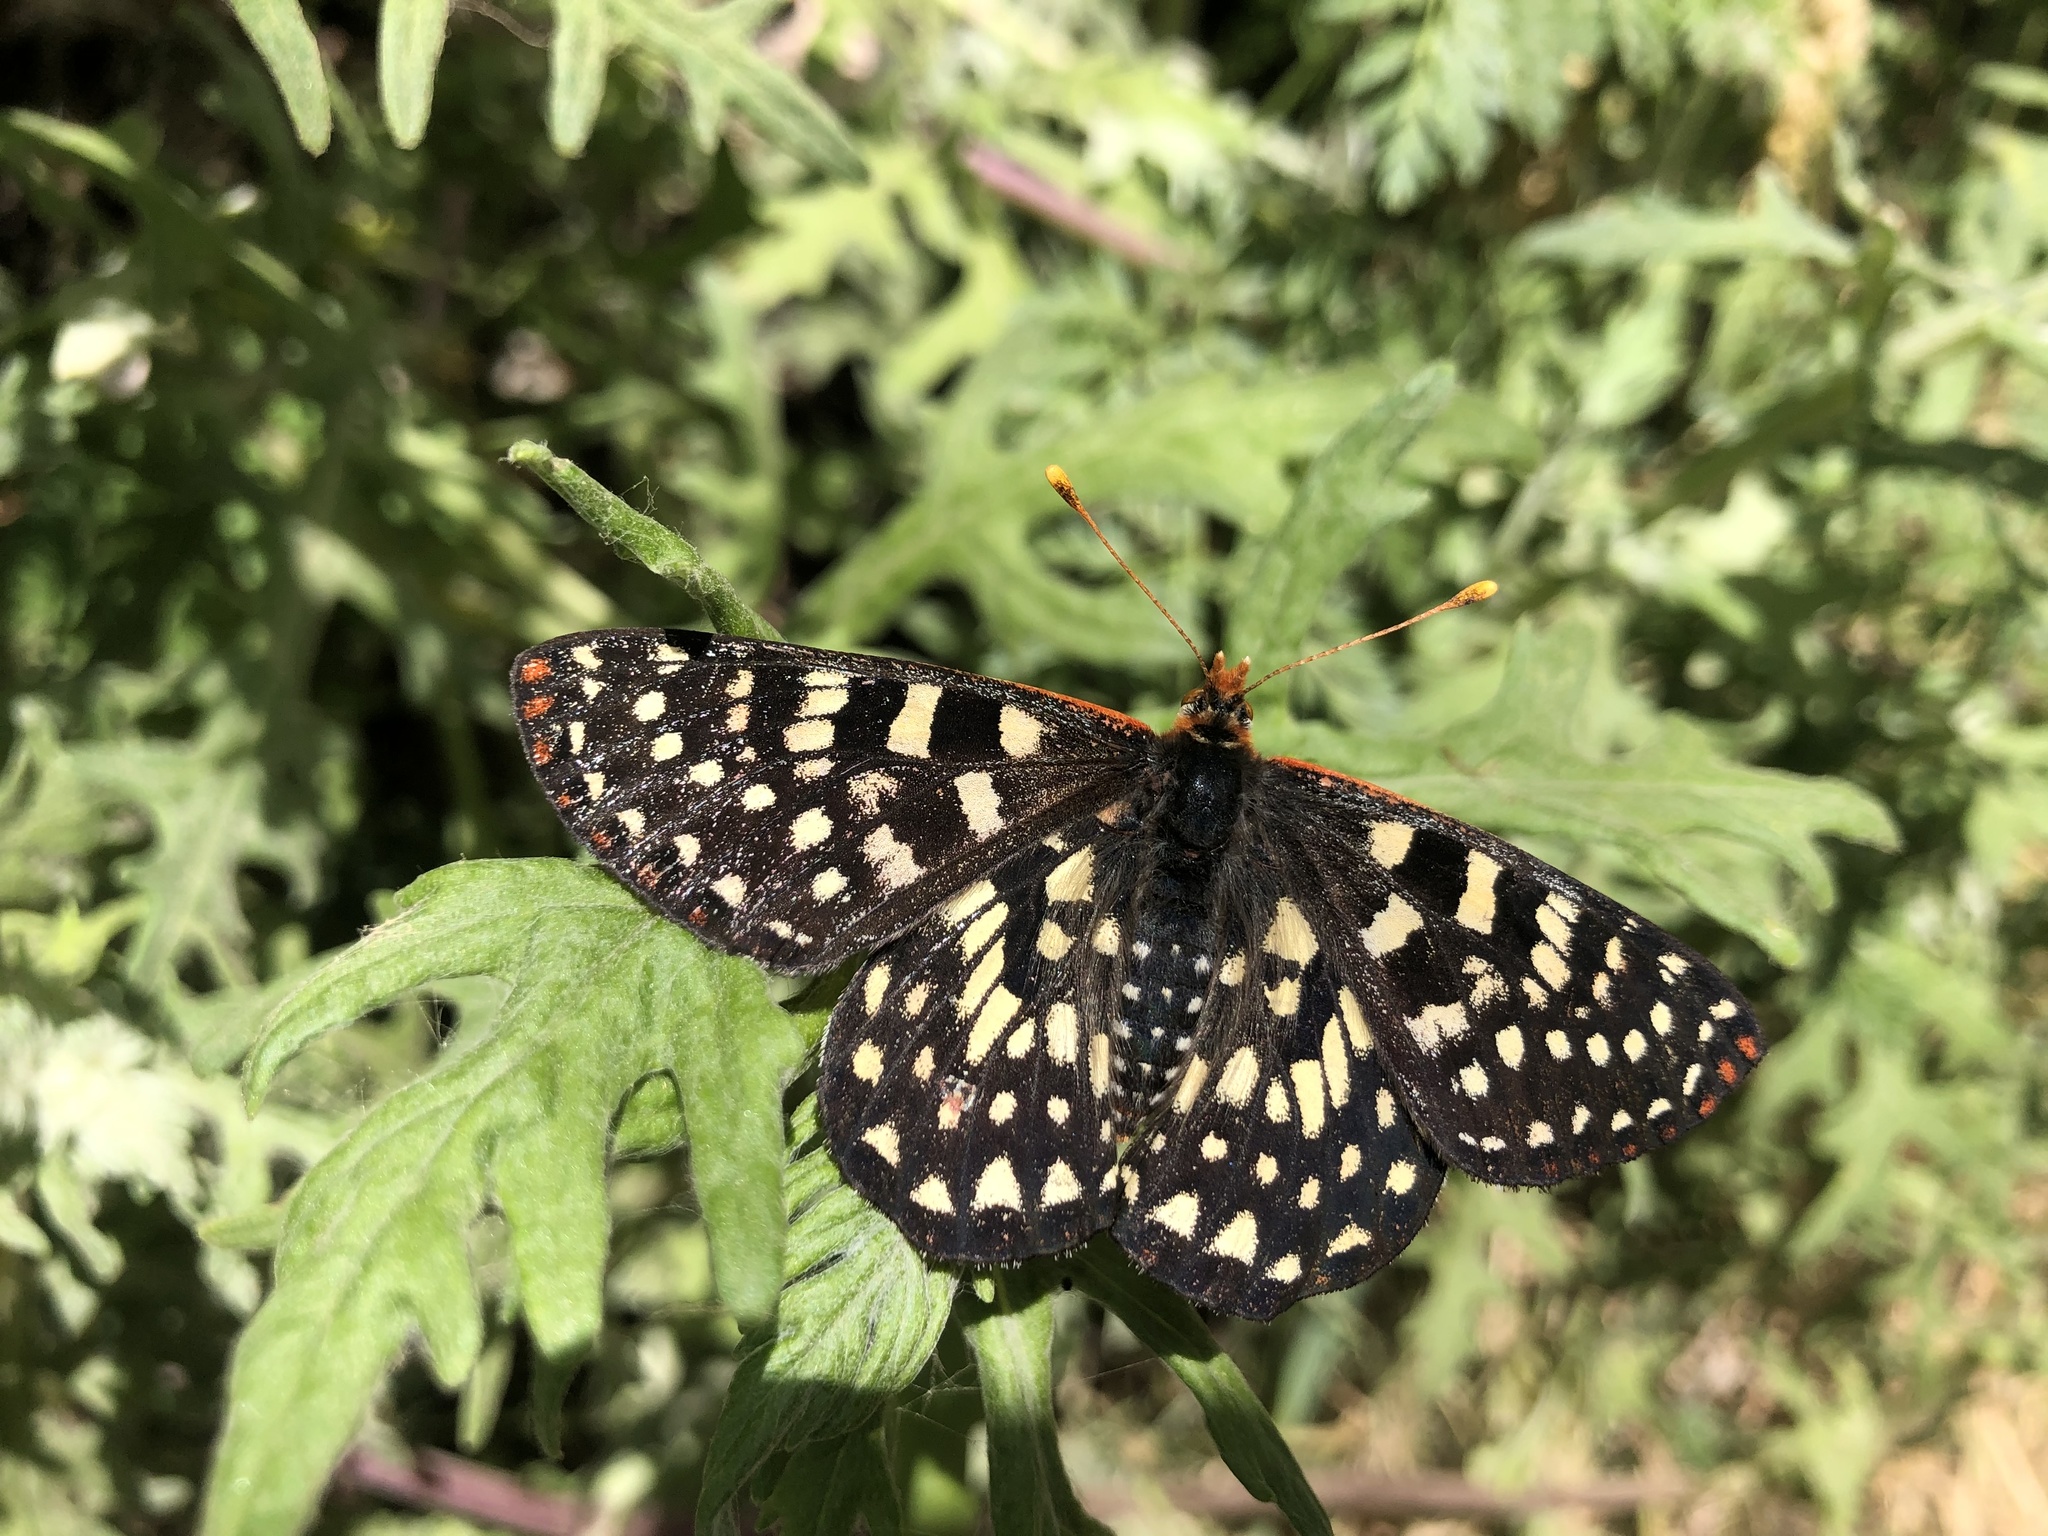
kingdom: Animalia
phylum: Arthropoda
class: Insecta
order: Lepidoptera
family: Nymphalidae
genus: Occidryas
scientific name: Occidryas chalcedona
